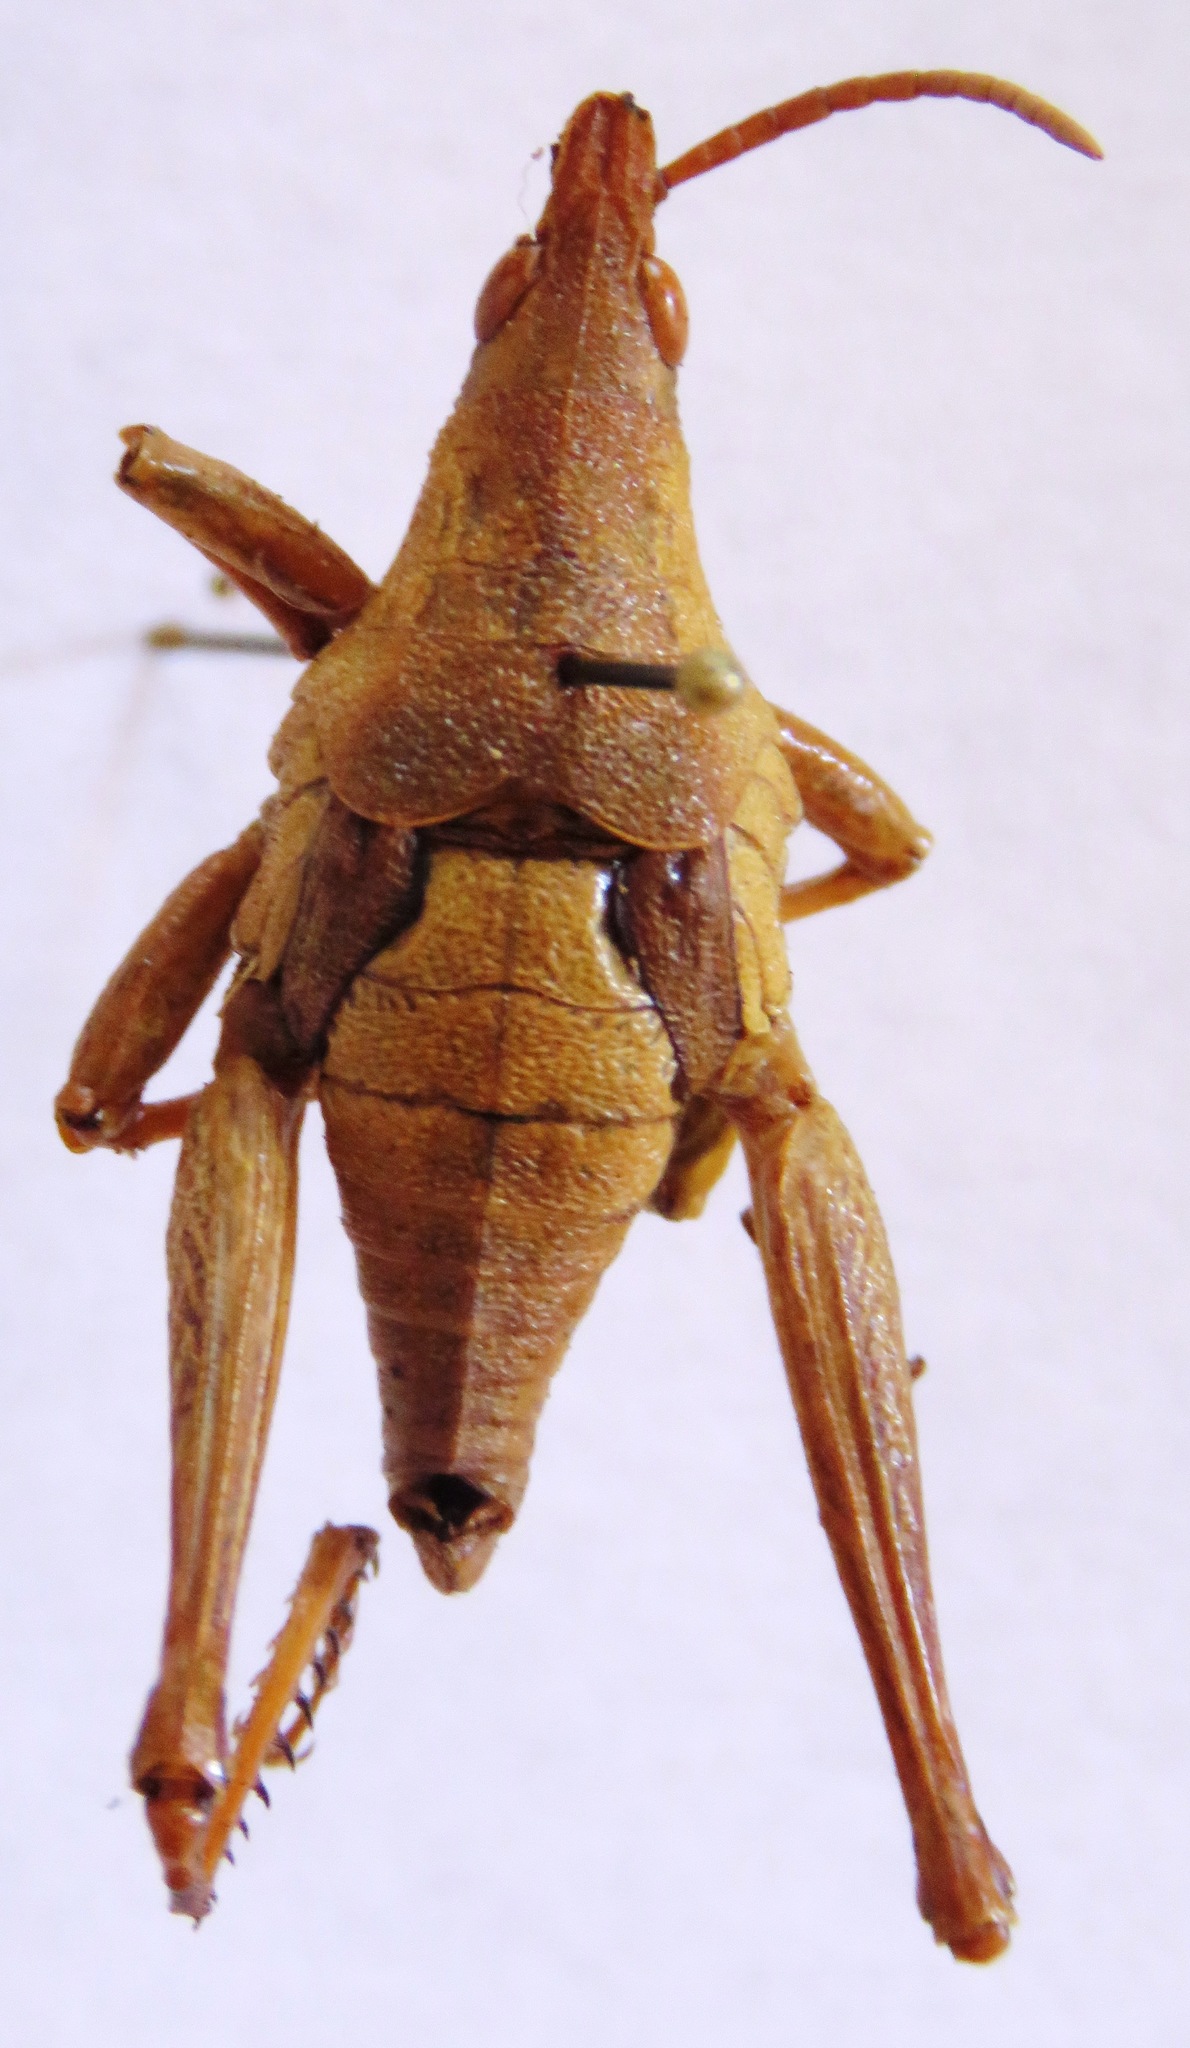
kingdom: Animalia
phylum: Arthropoda
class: Insecta
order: Orthoptera
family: Pyrgomorphidae
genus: Prosphena
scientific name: Prosphena scudderi
